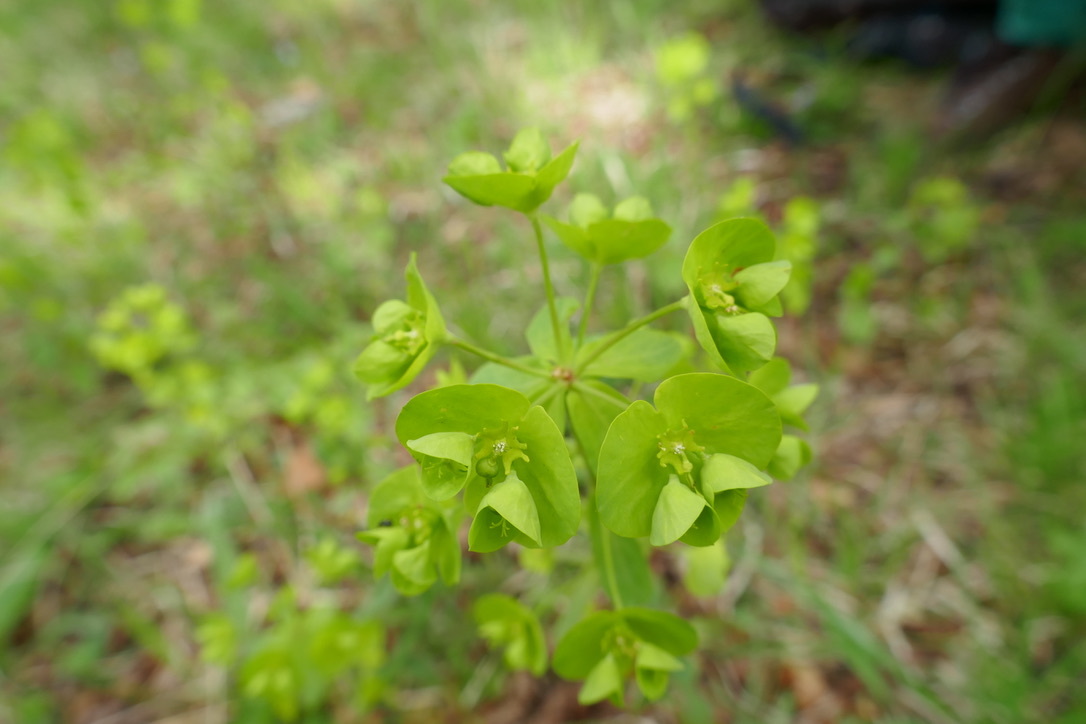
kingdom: Plantae
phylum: Tracheophyta
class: Magnoliopsida
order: Malpighiales
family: Euphorbiaceae
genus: Euphorbia
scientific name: Euphorbia amygdaloides
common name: Wood spurge
